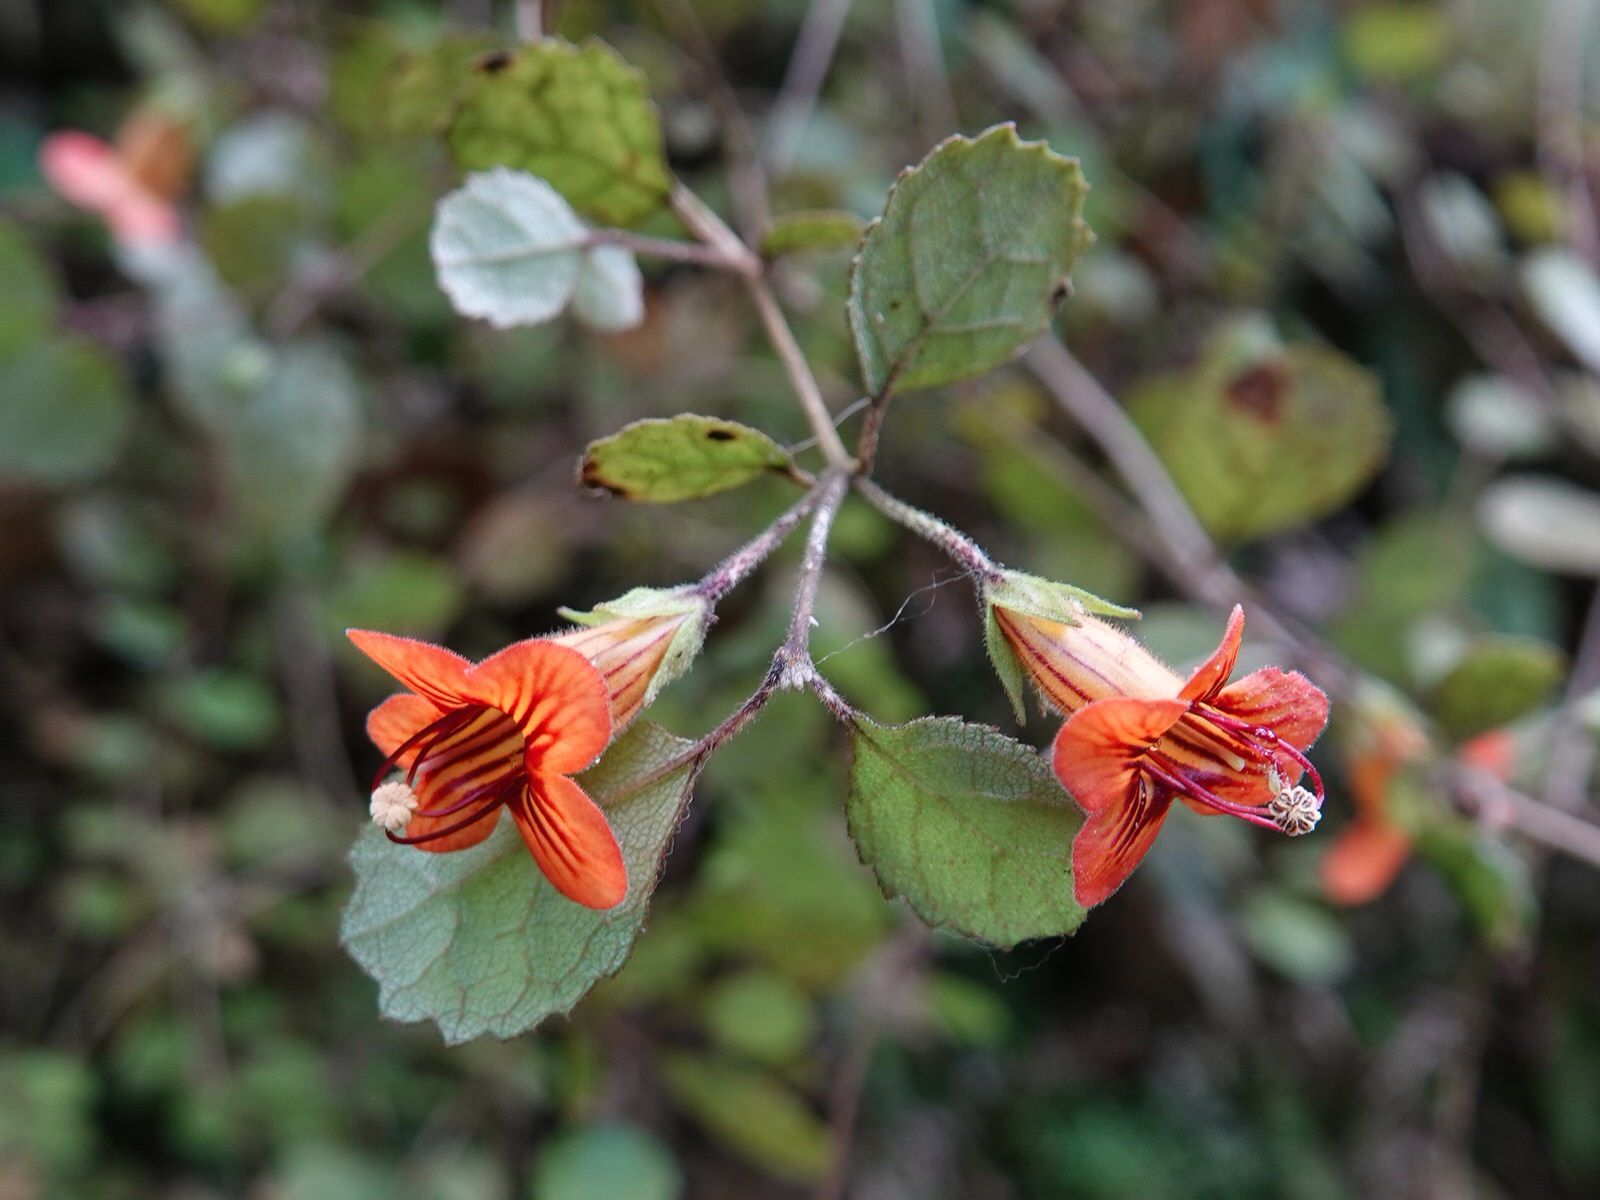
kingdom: Plantae
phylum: Tracheophyta
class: Magnoliopsida
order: Lamiales
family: Gesneriaceae
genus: Rhabdothamnus
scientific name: Rhabdothamnus solandri
